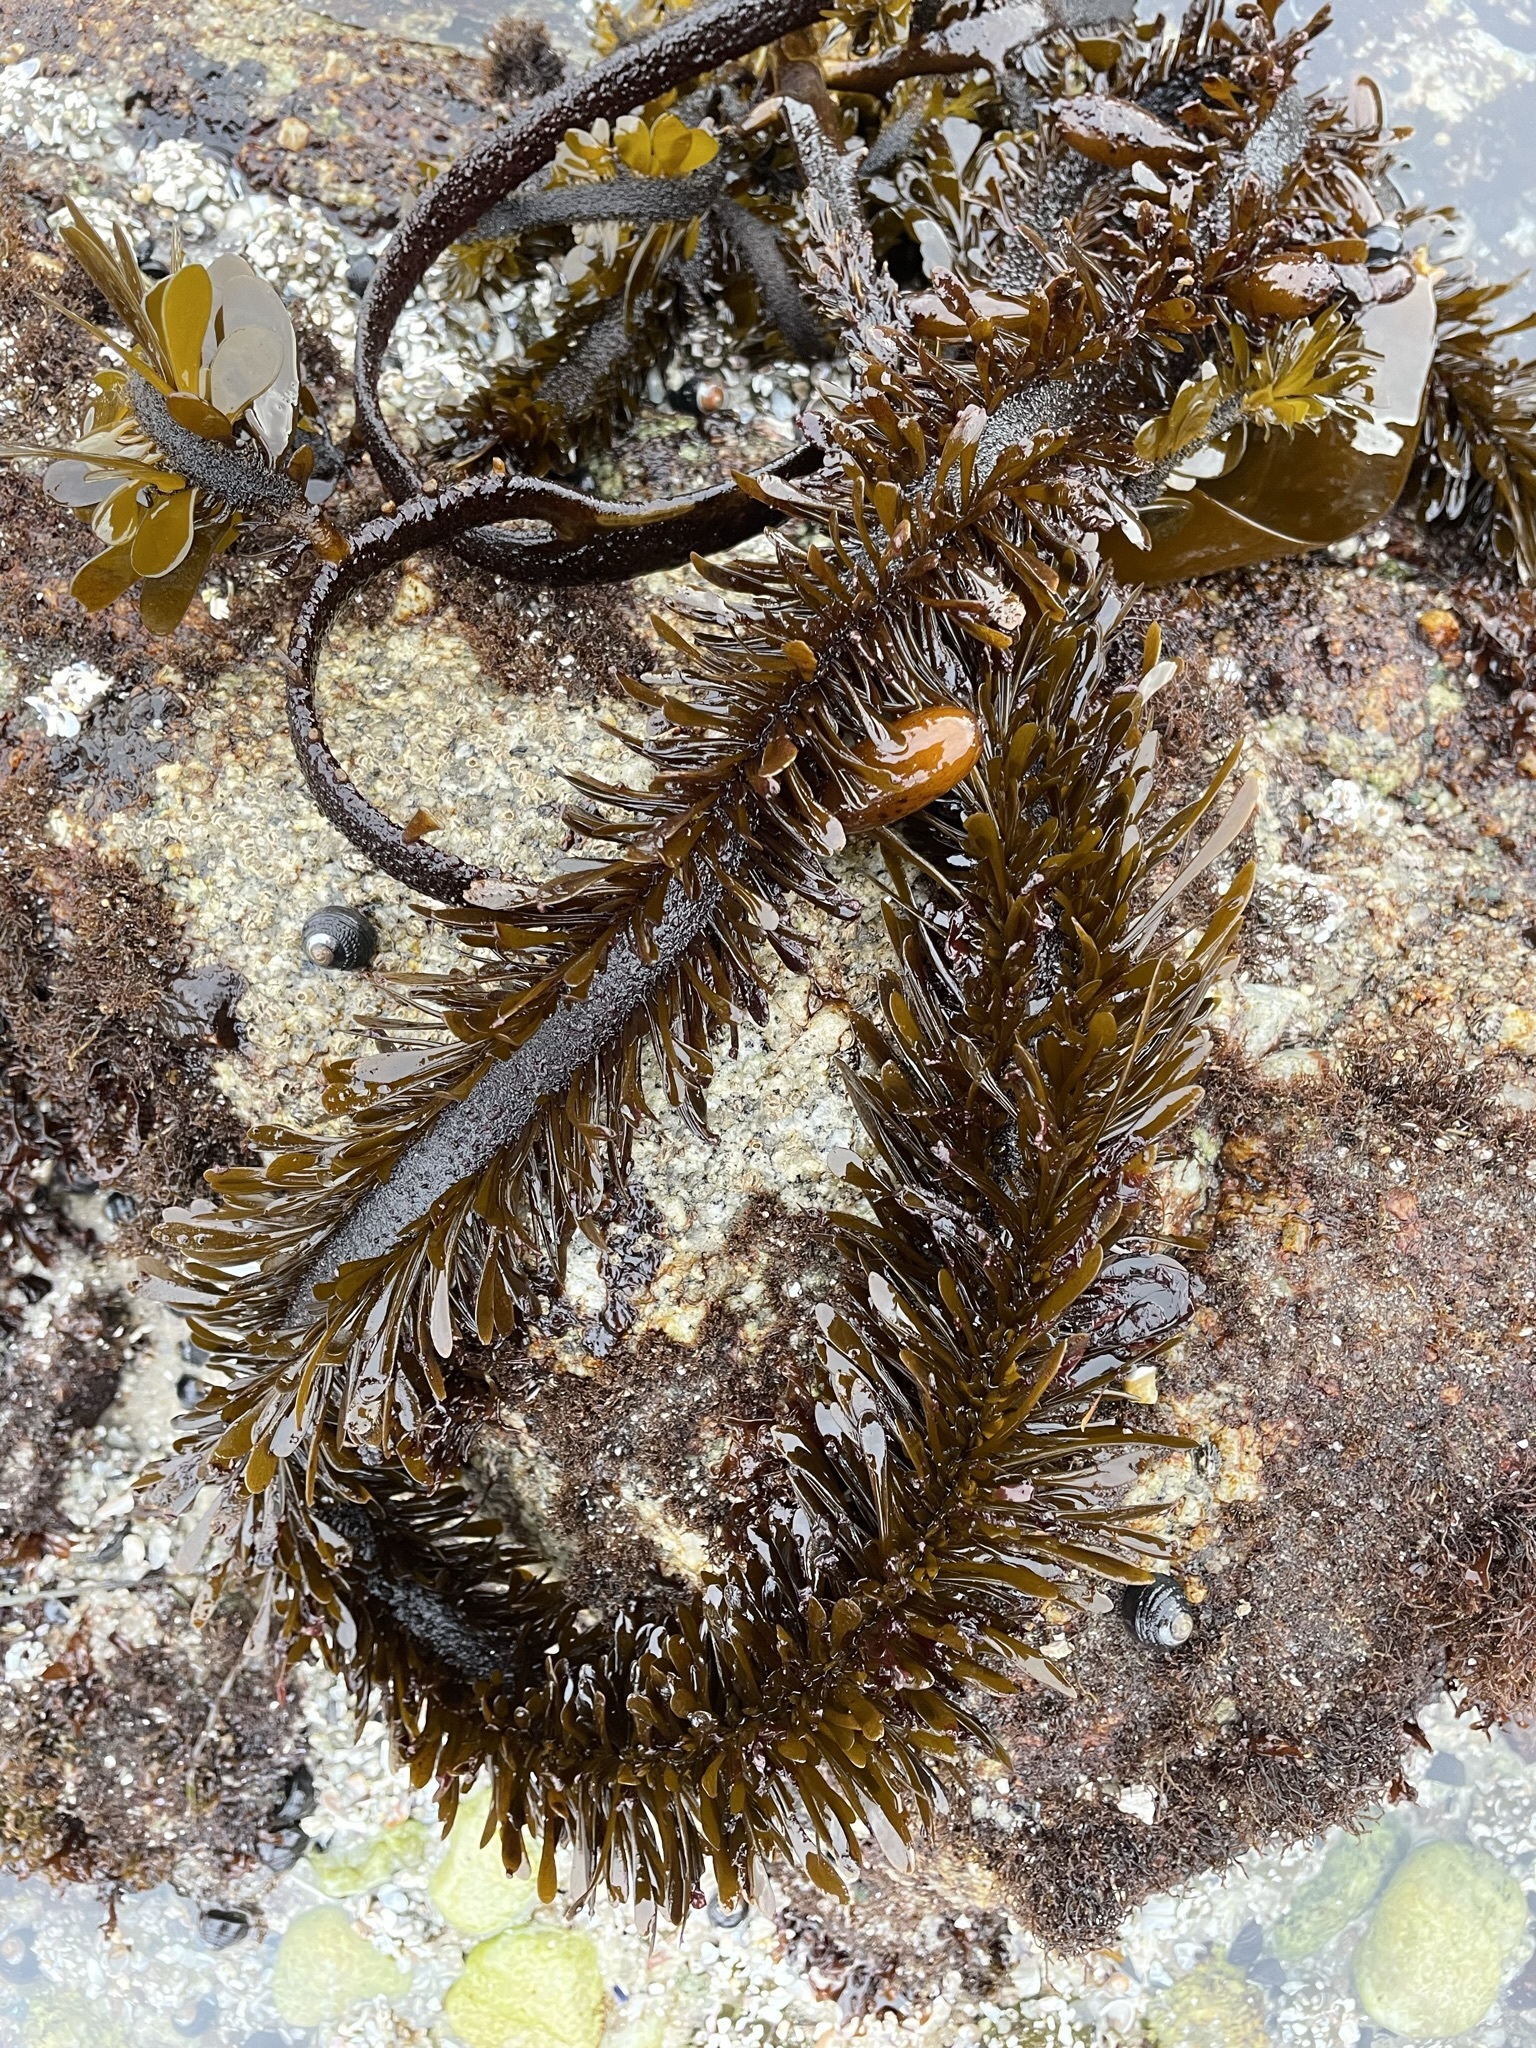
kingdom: Chromista
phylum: Ochrophyta
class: Phaeophyceae
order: Laminariales
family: Lessoniaceae
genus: Egregia
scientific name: Egregia menziesii
